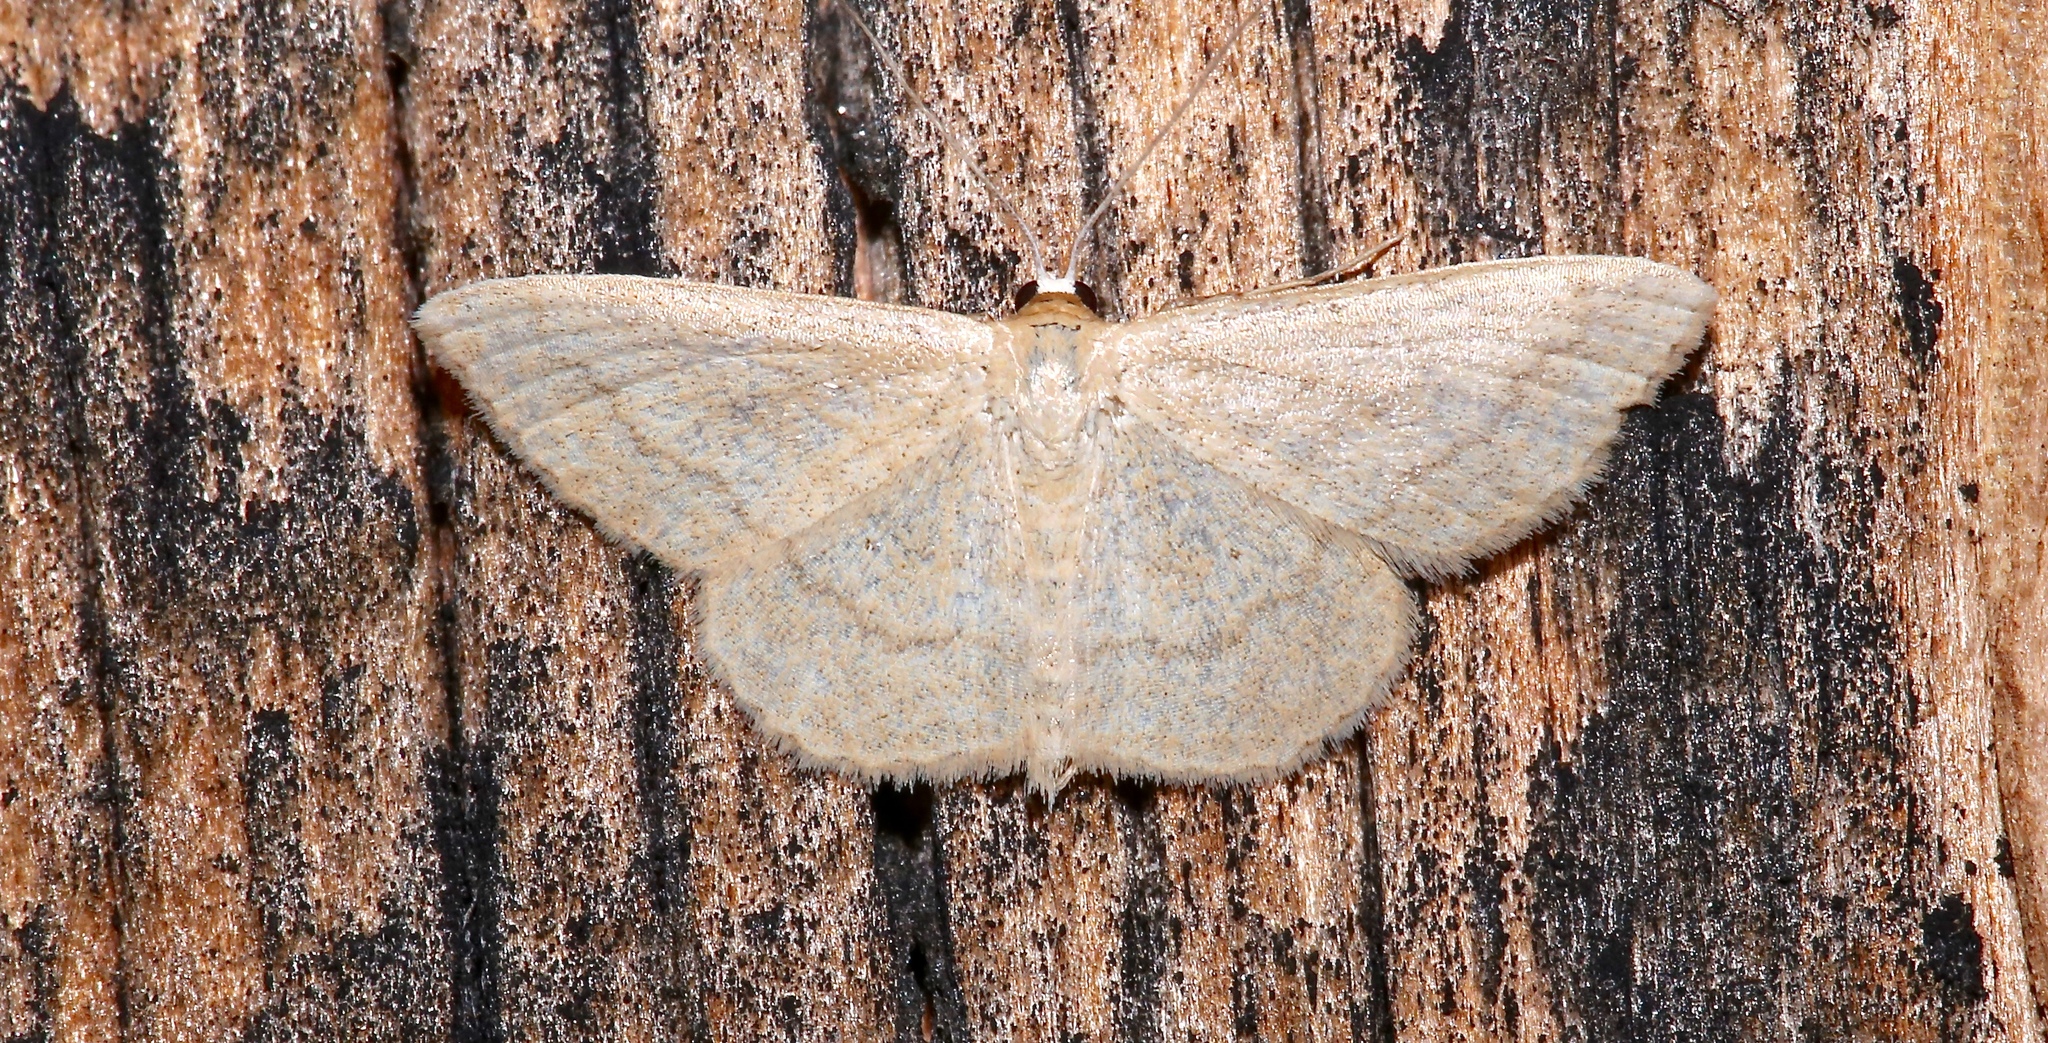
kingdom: Animalia
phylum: Arthropoda
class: Insecta
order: Lepidoptera
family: Geometridae
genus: Scopula
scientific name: Scopula junctaria
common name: Simple wave
